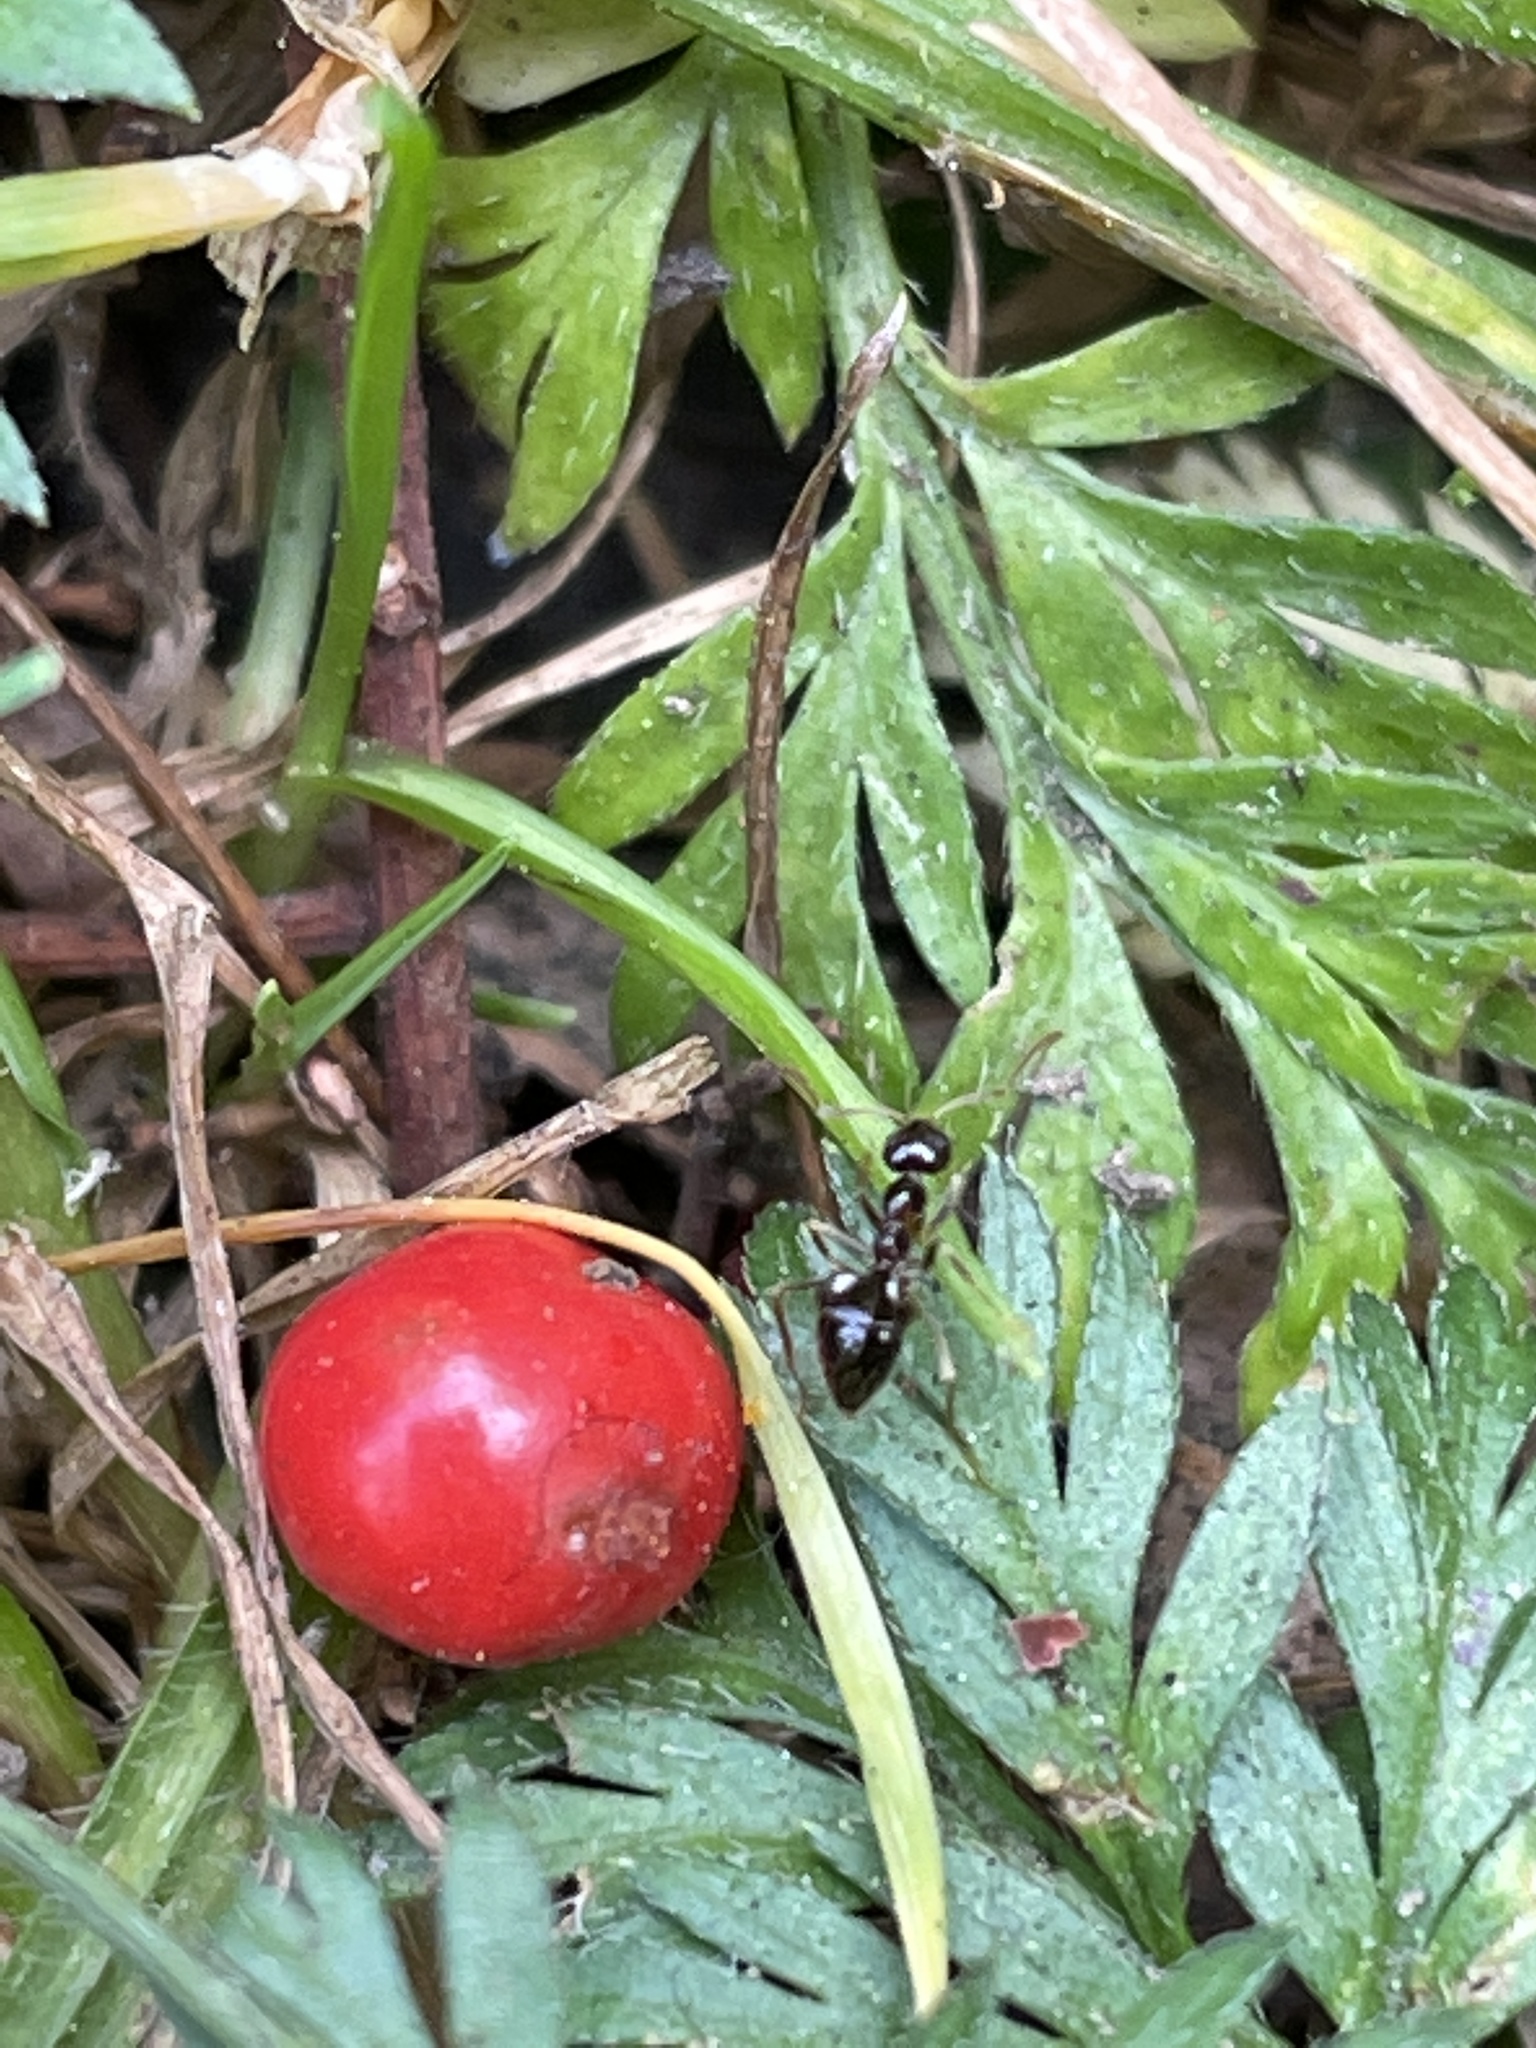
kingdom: Animalia
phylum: Arthropoda
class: Insecta
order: Hymenoptera
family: Formicidae
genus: Prenolepis
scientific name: Prenolepis imparis
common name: Small honey ant
